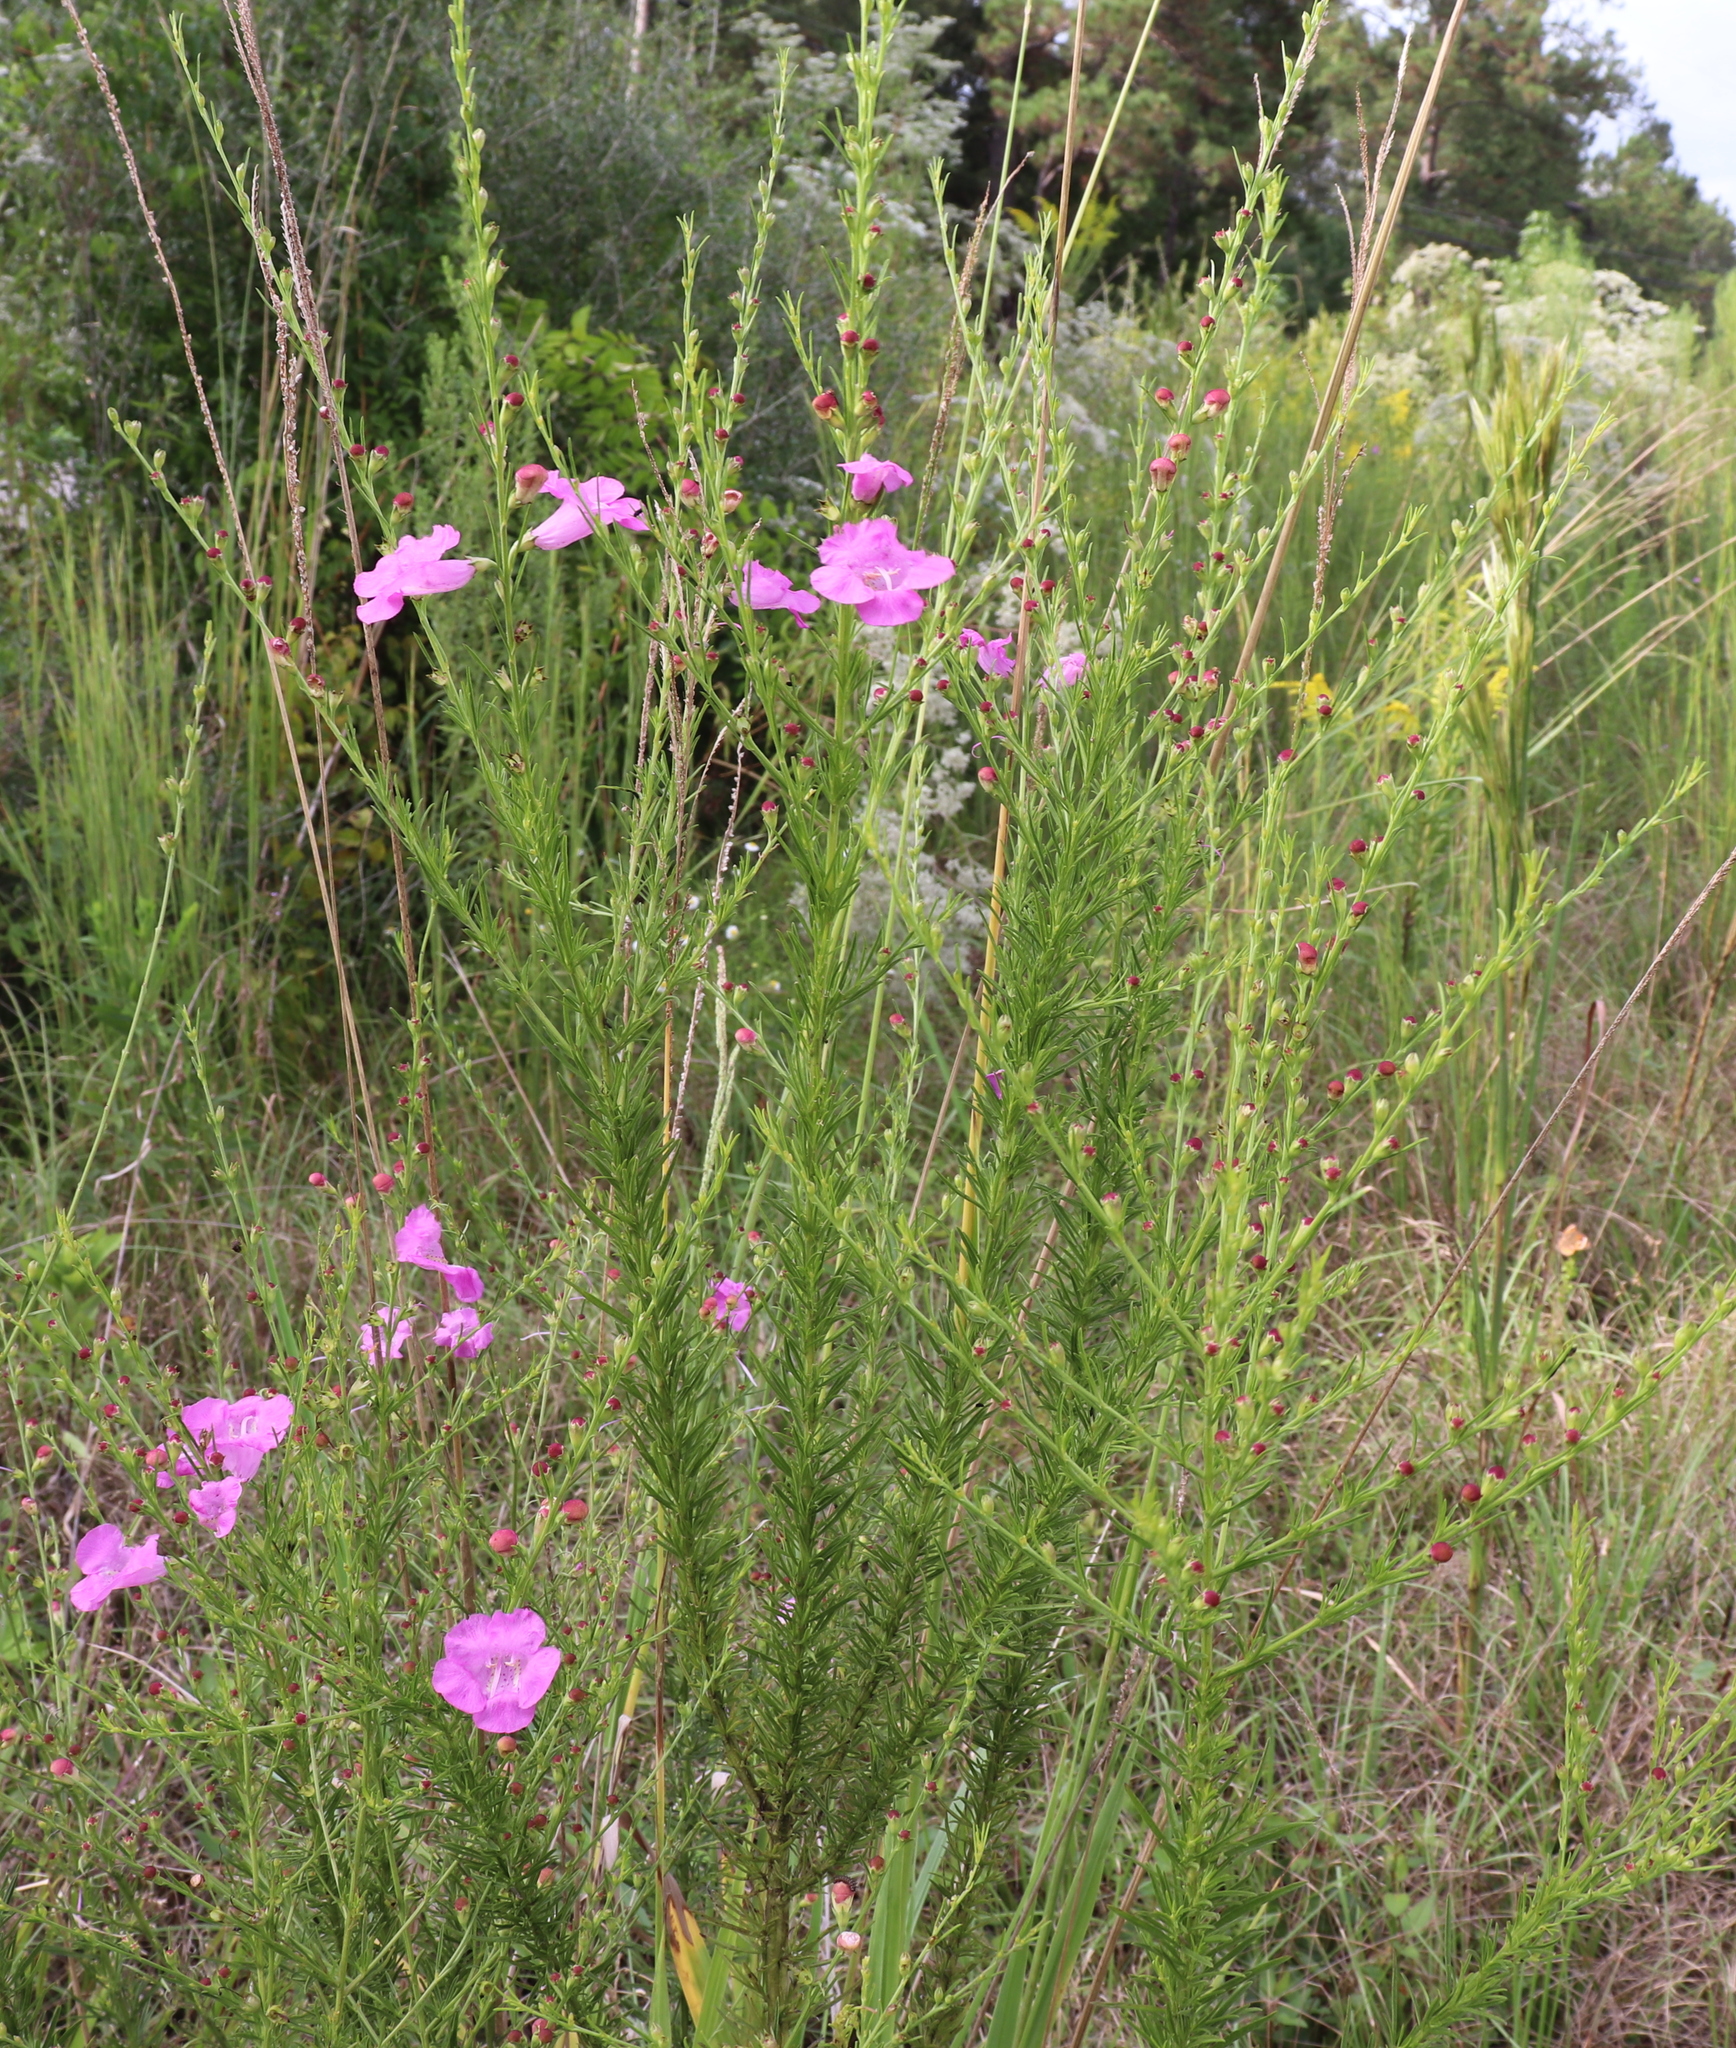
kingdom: Plantae
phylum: Tracheophyta
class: Magnoliopsida
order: Lamiales
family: Orobanchaceae
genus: Agalinis
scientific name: Agalinis fasciculata
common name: Beach false foxglove
